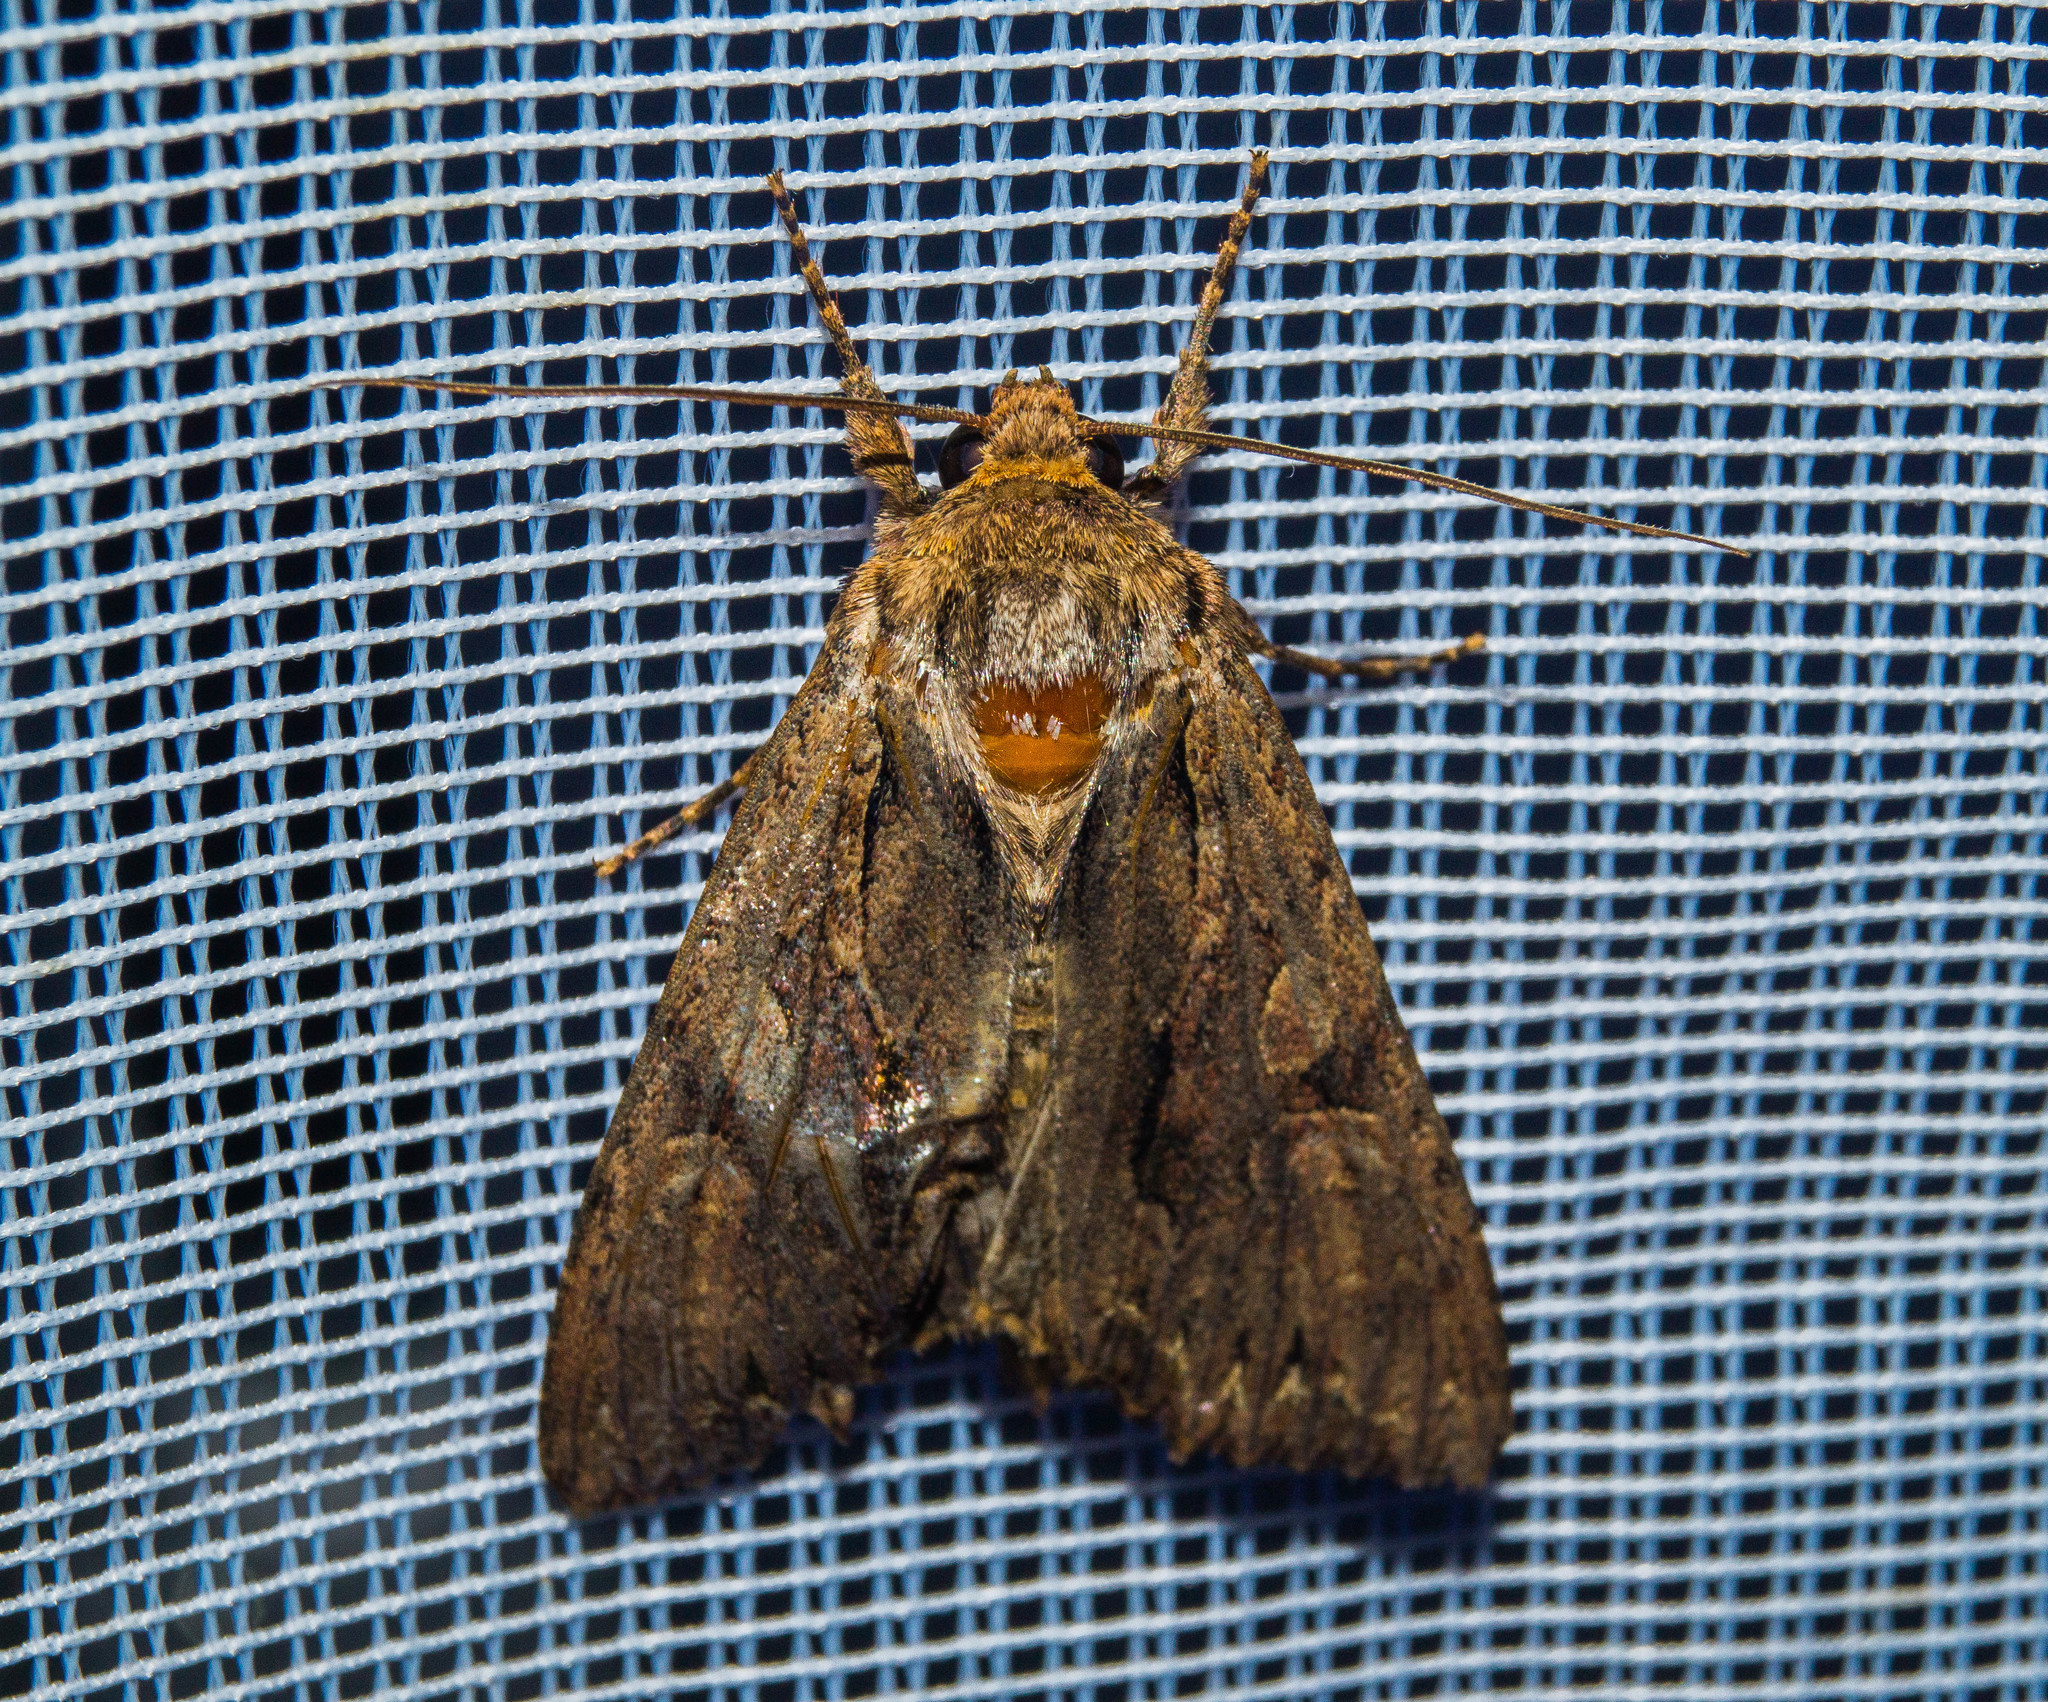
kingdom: Animalia
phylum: Arthropoda
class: Insecta
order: Lepidoptera
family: Noctuidae
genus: Apamea
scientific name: Apamea monoglypha
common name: Dark arches
